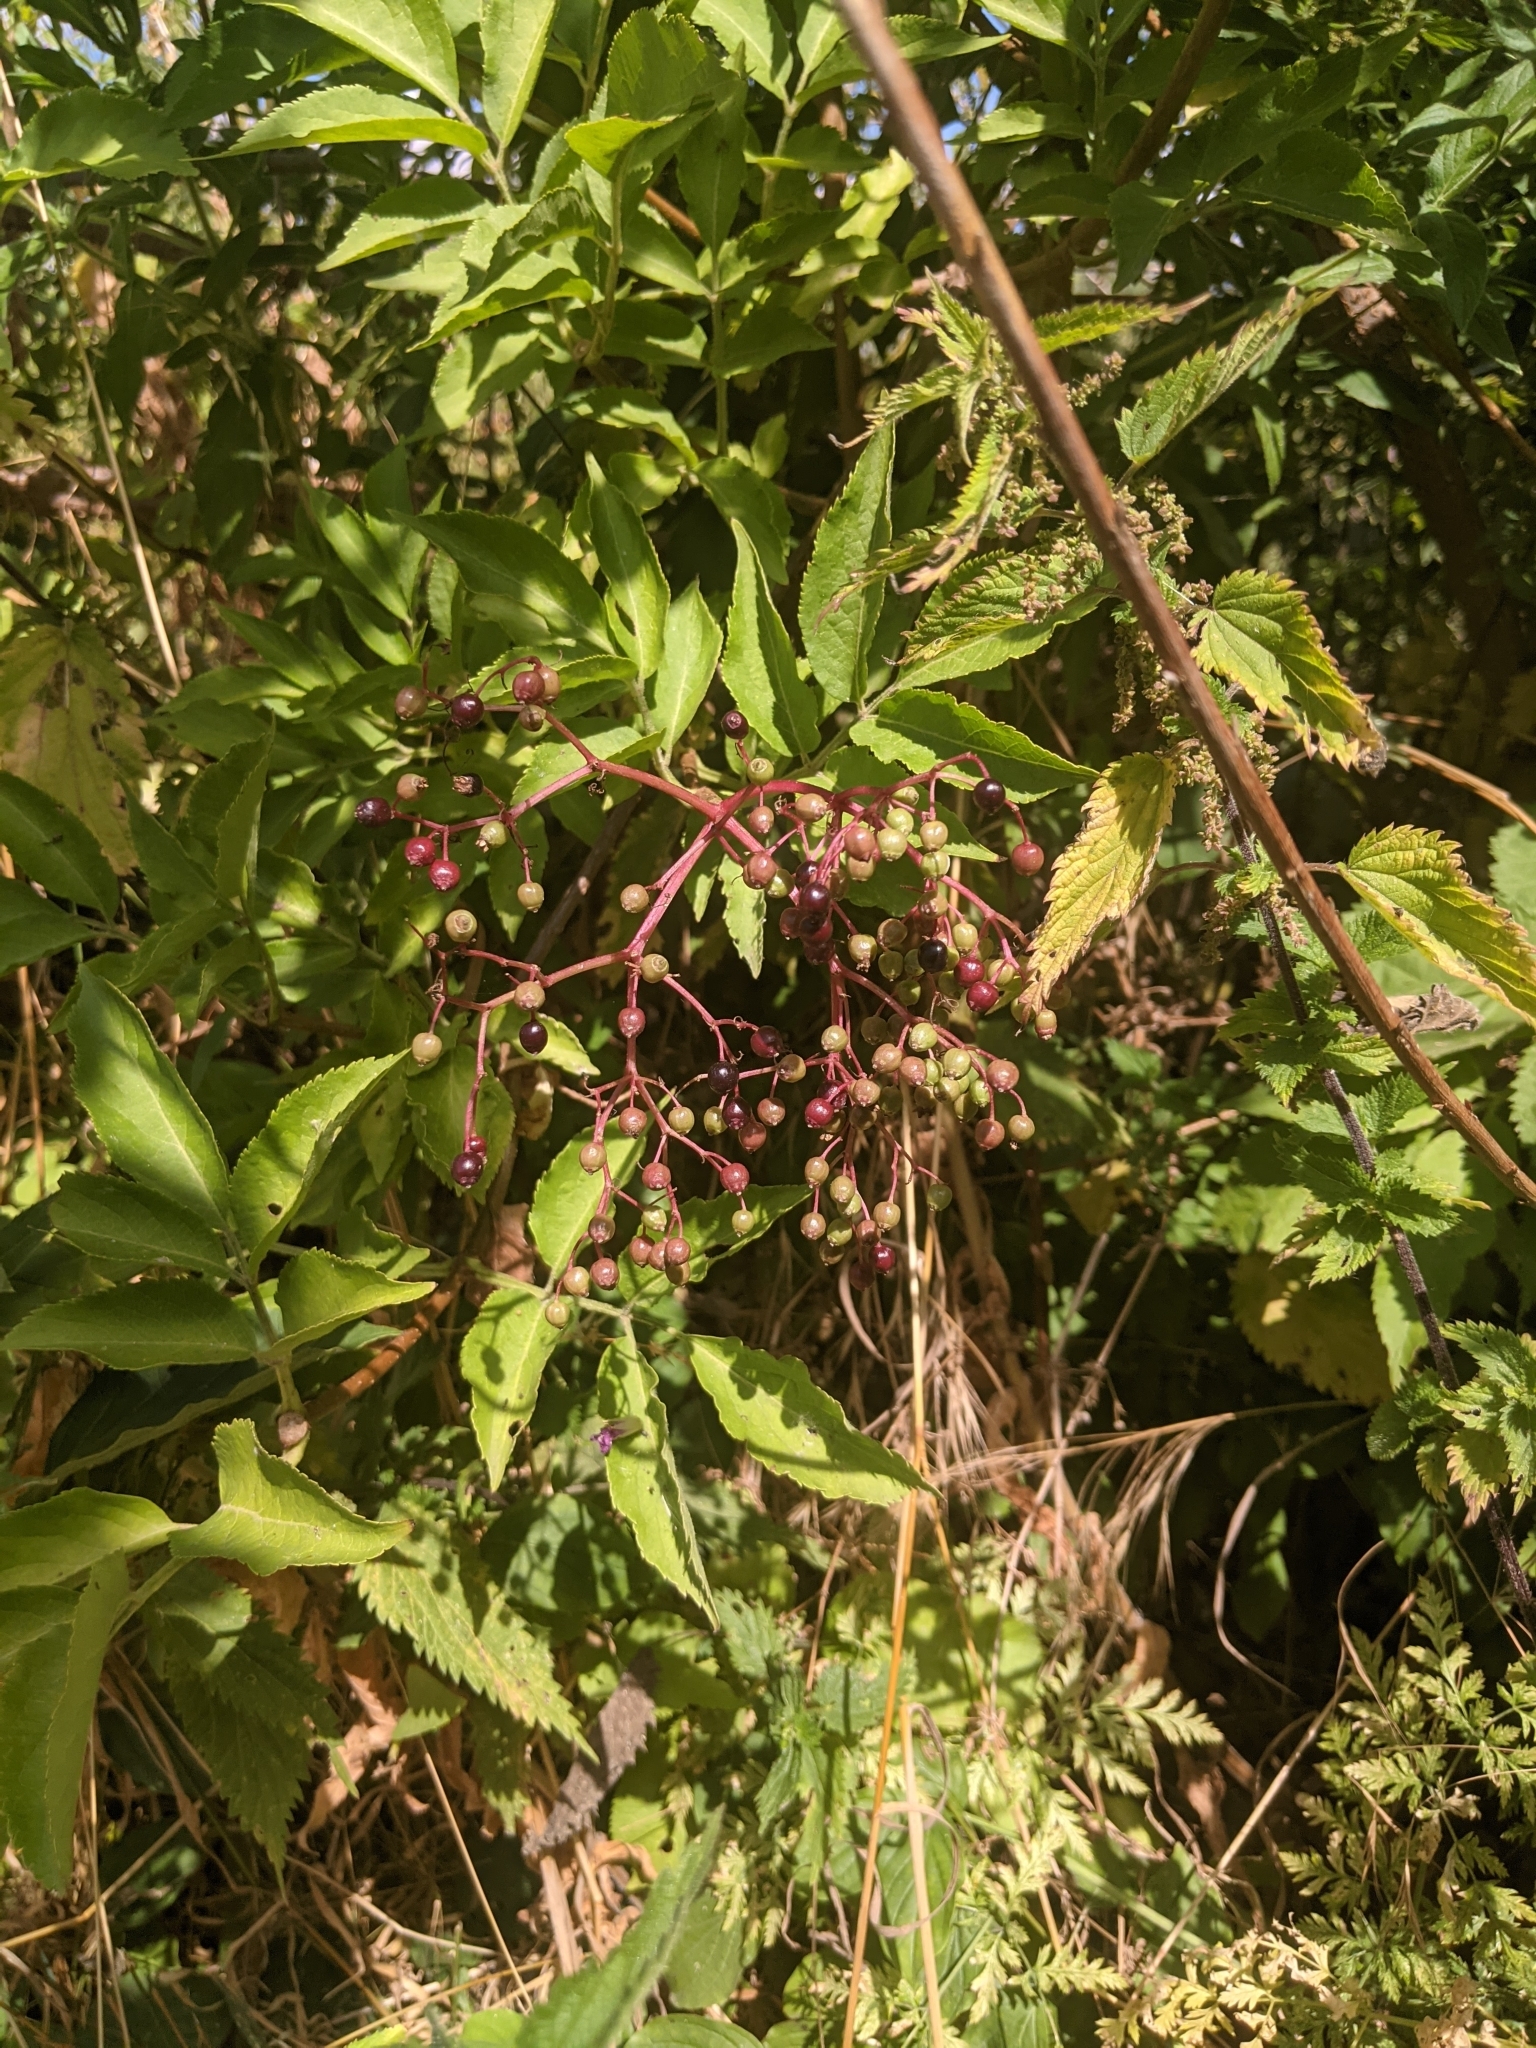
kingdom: Plantae
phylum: Tracheophyta
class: Magnoliopsida
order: Dipsacales
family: Viburnaceae
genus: Sambucus
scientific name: Sambucus nigra
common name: Elder
